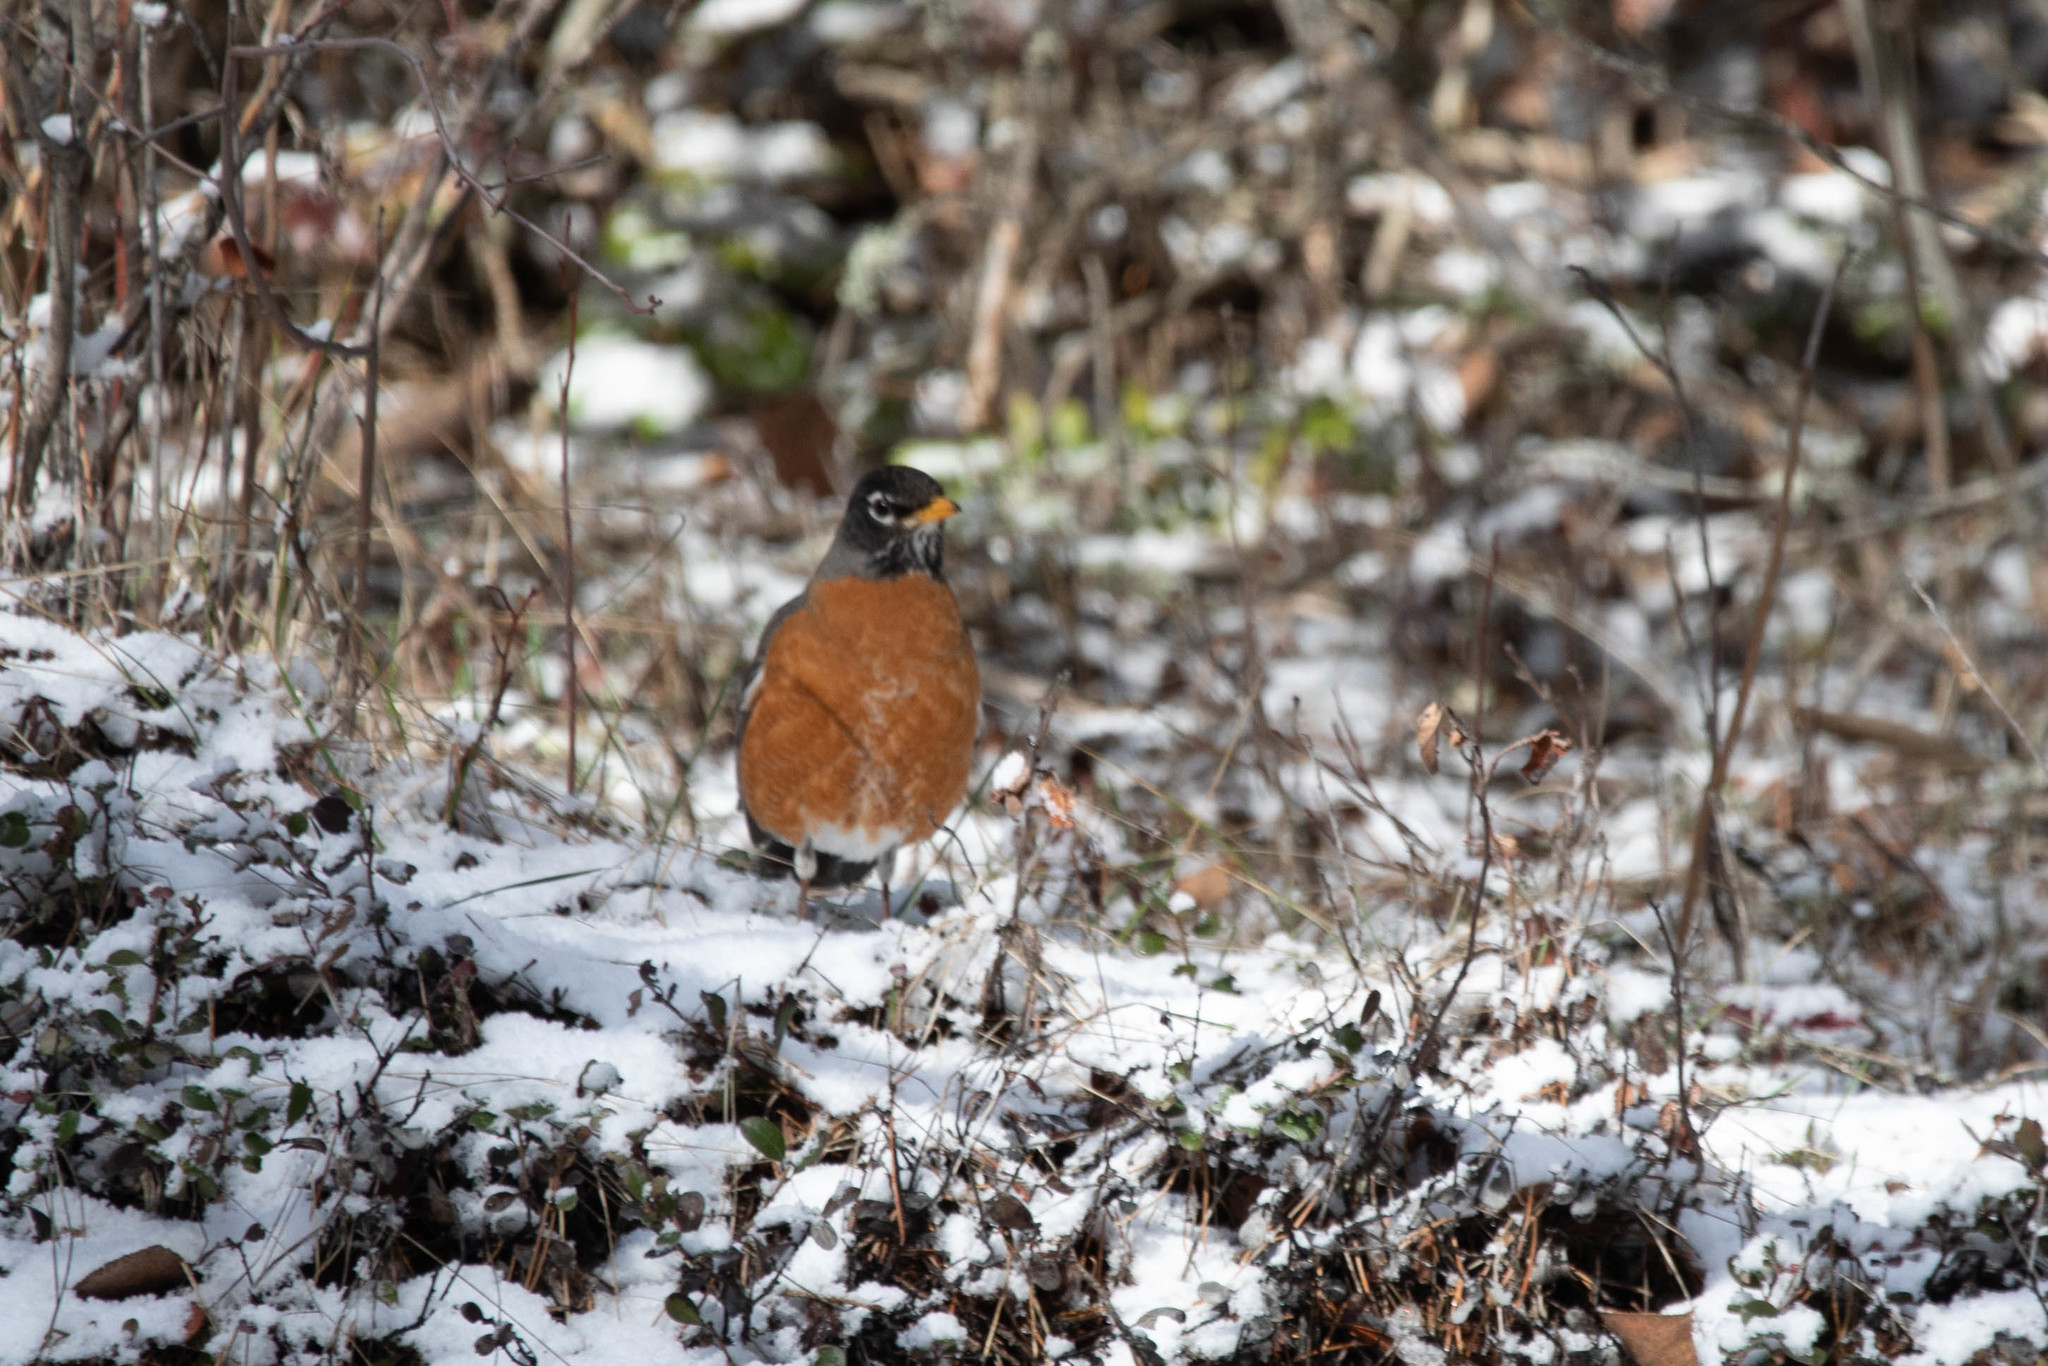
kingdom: Animalia
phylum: Chordata
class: Aves
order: Passeriformes
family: Turdidae
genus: Turdus
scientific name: Turdus migratorius
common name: American robin
